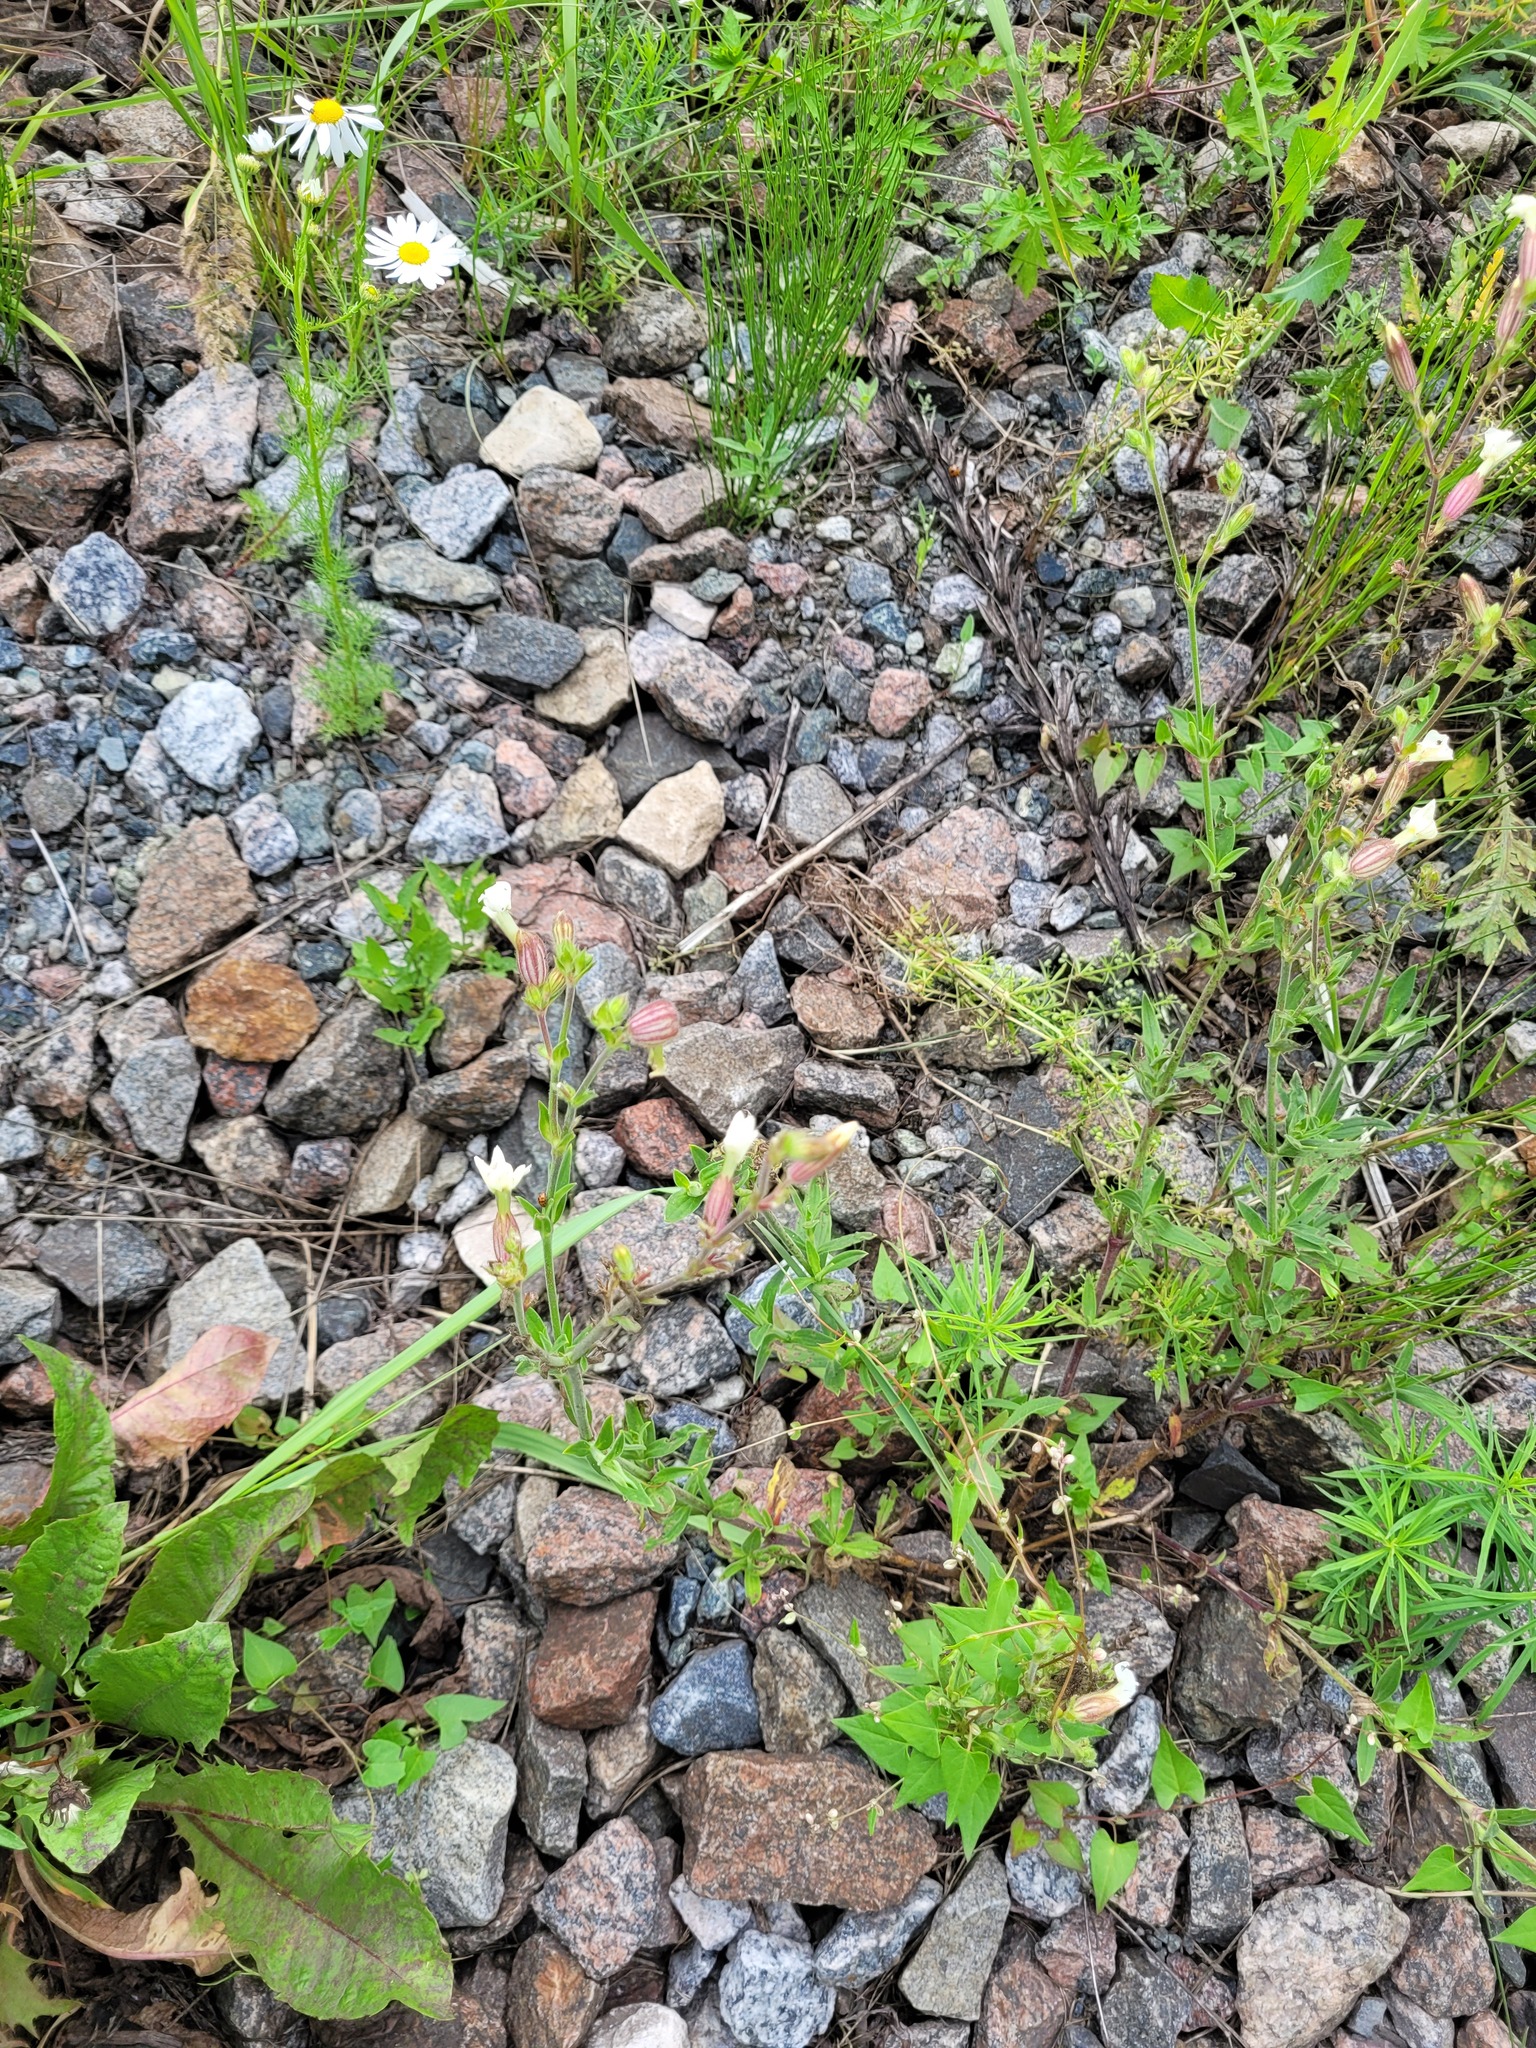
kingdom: Plantae
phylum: Tracheophyta
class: Magnoliopsida
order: Caryophyllales
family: Caryophyllaceae
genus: Silene
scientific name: Silene latifolia
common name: White campion
